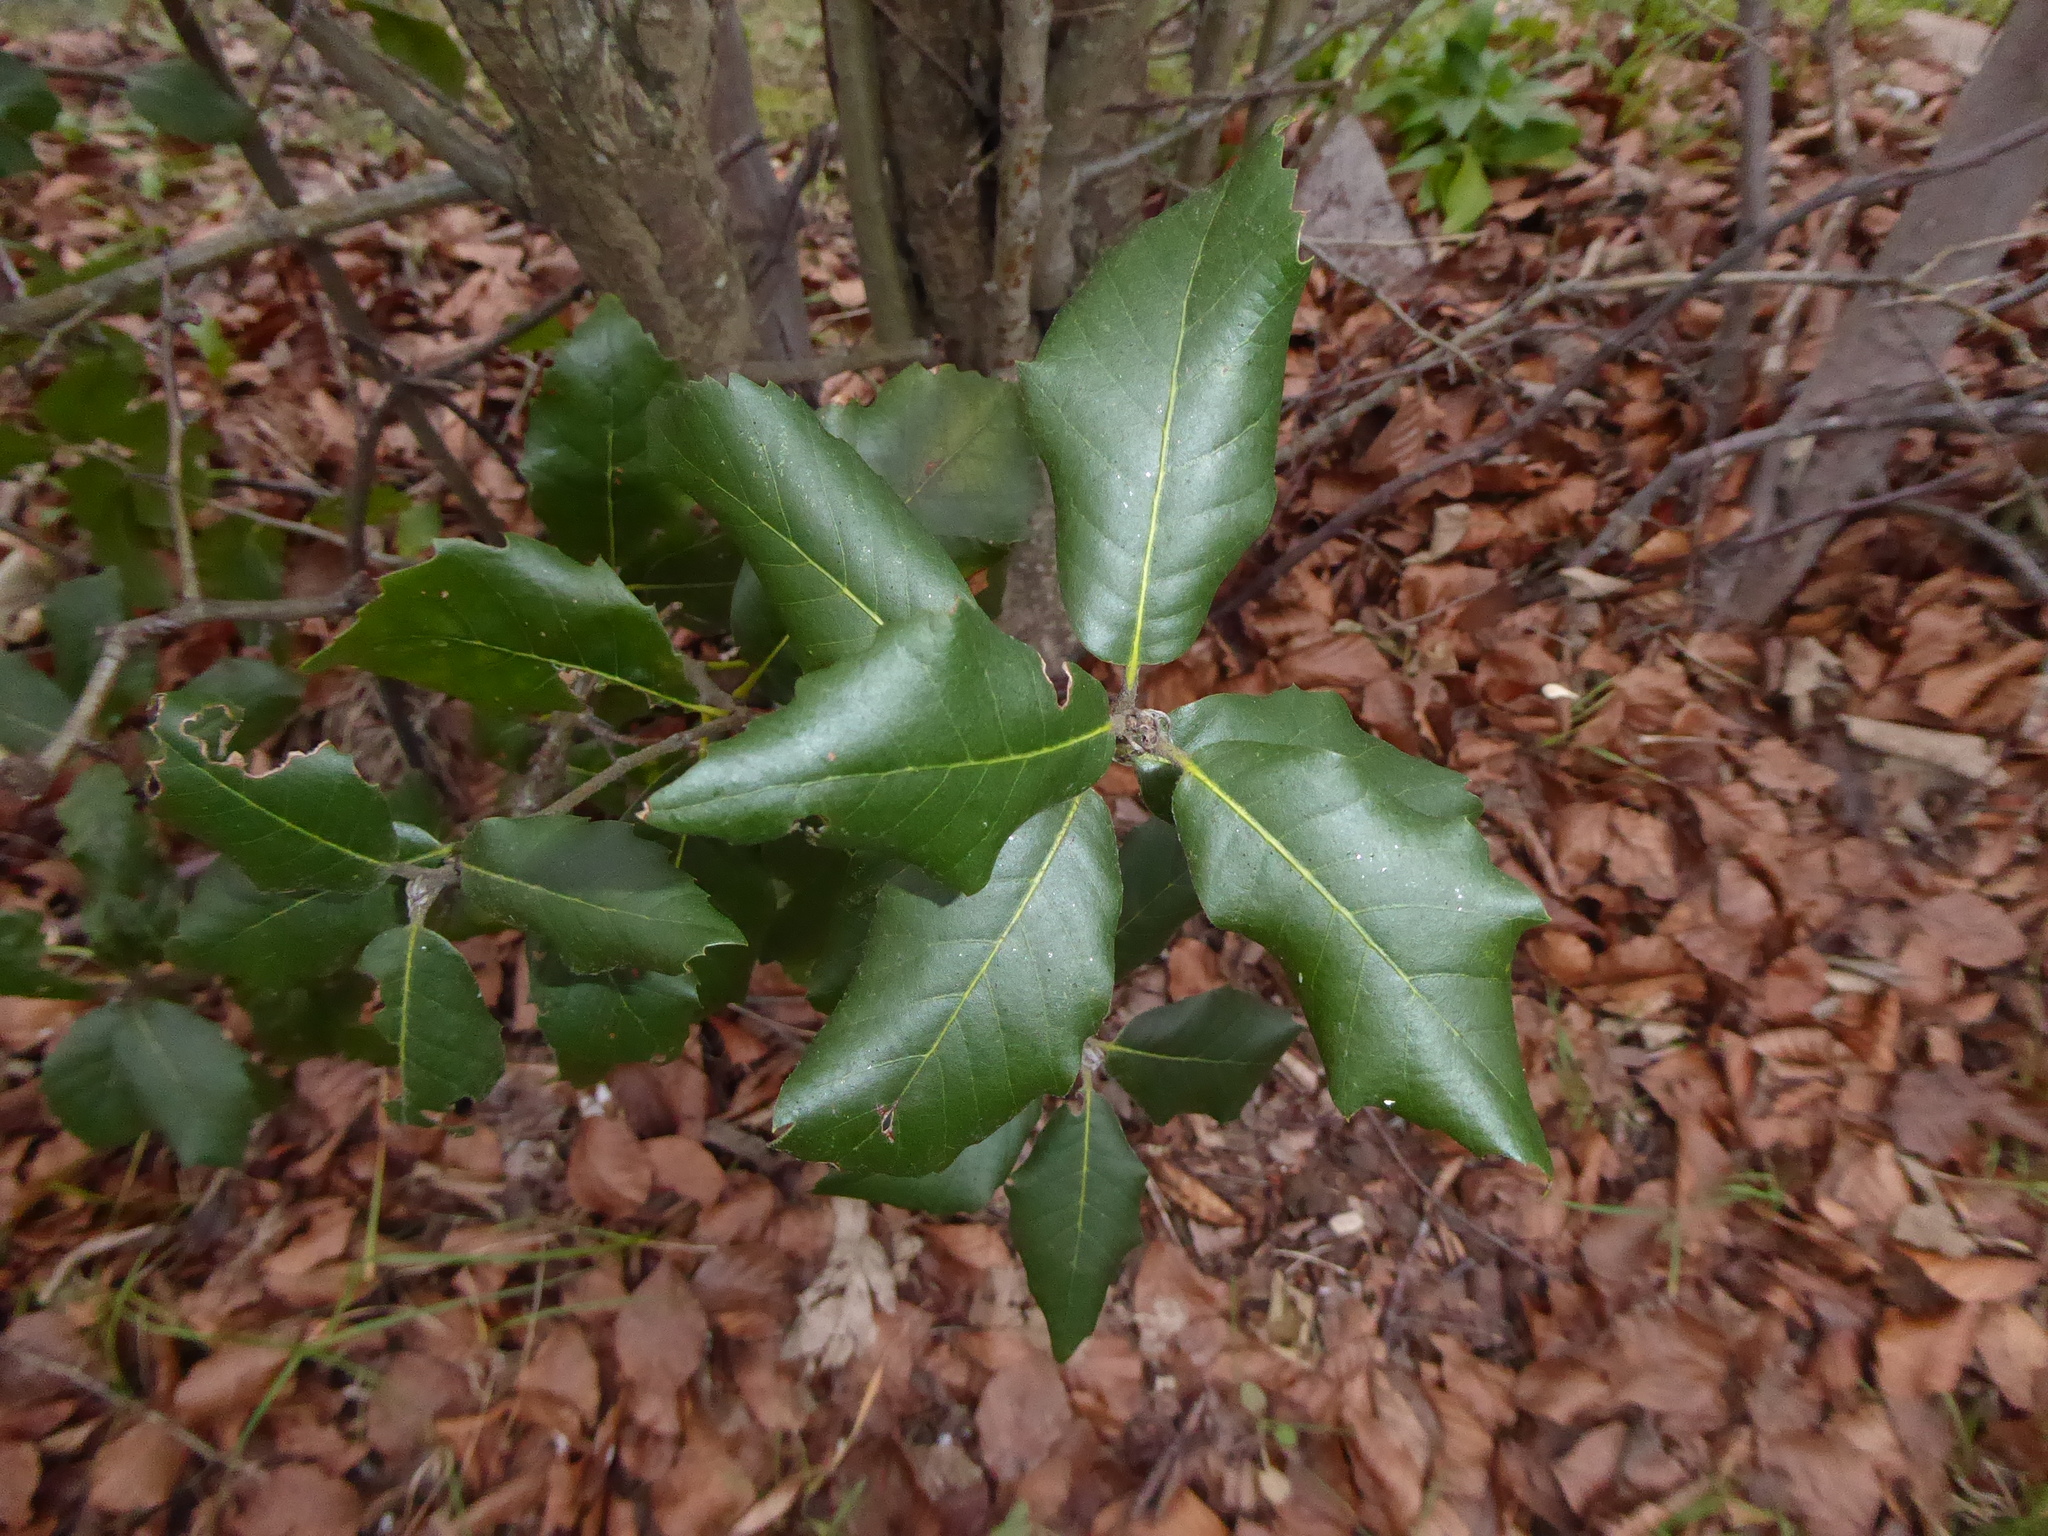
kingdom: Plantae
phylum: Tracheophyta
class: Magnoliopsida
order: Fagales
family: Fagaceae
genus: Quercus
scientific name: Quercus ilex
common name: Evergreen oak
